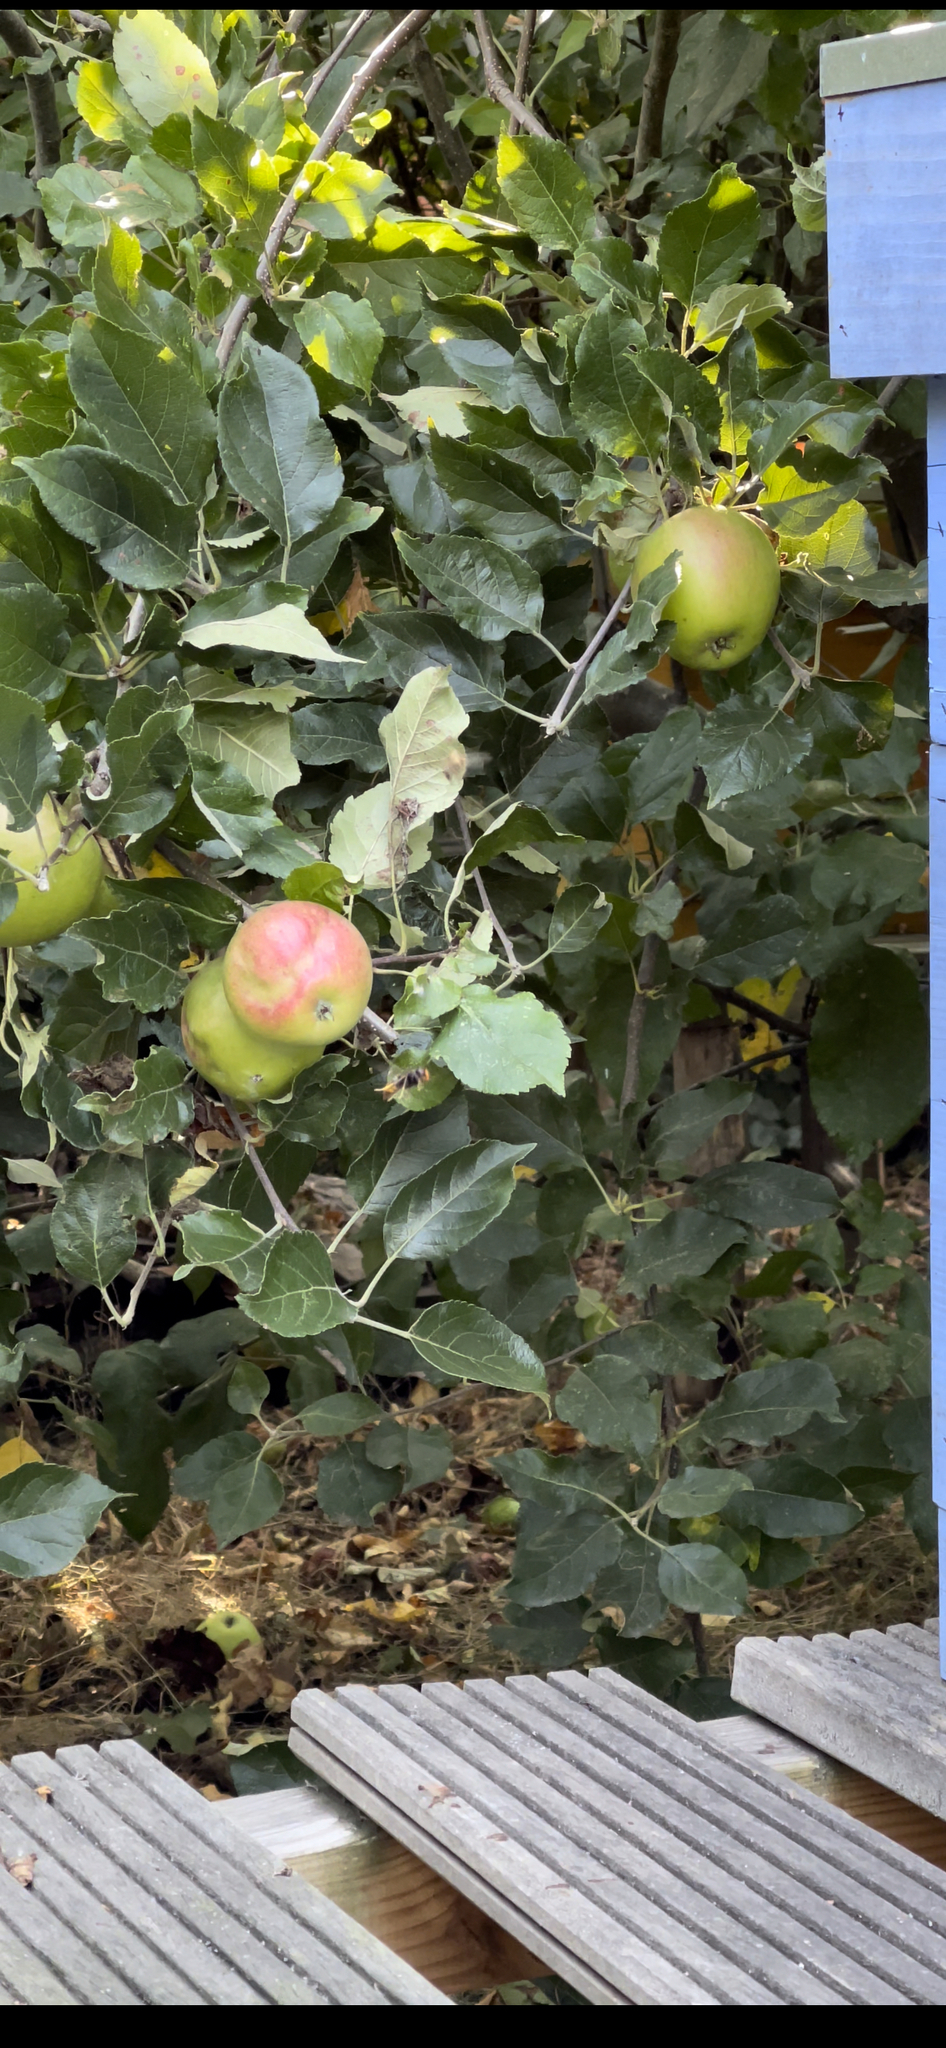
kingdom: Animalia
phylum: Arthropoda
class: Insecta
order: Hymenoptera
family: Vespidae
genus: Vespa
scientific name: Vespa velutina
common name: Asian hornet
